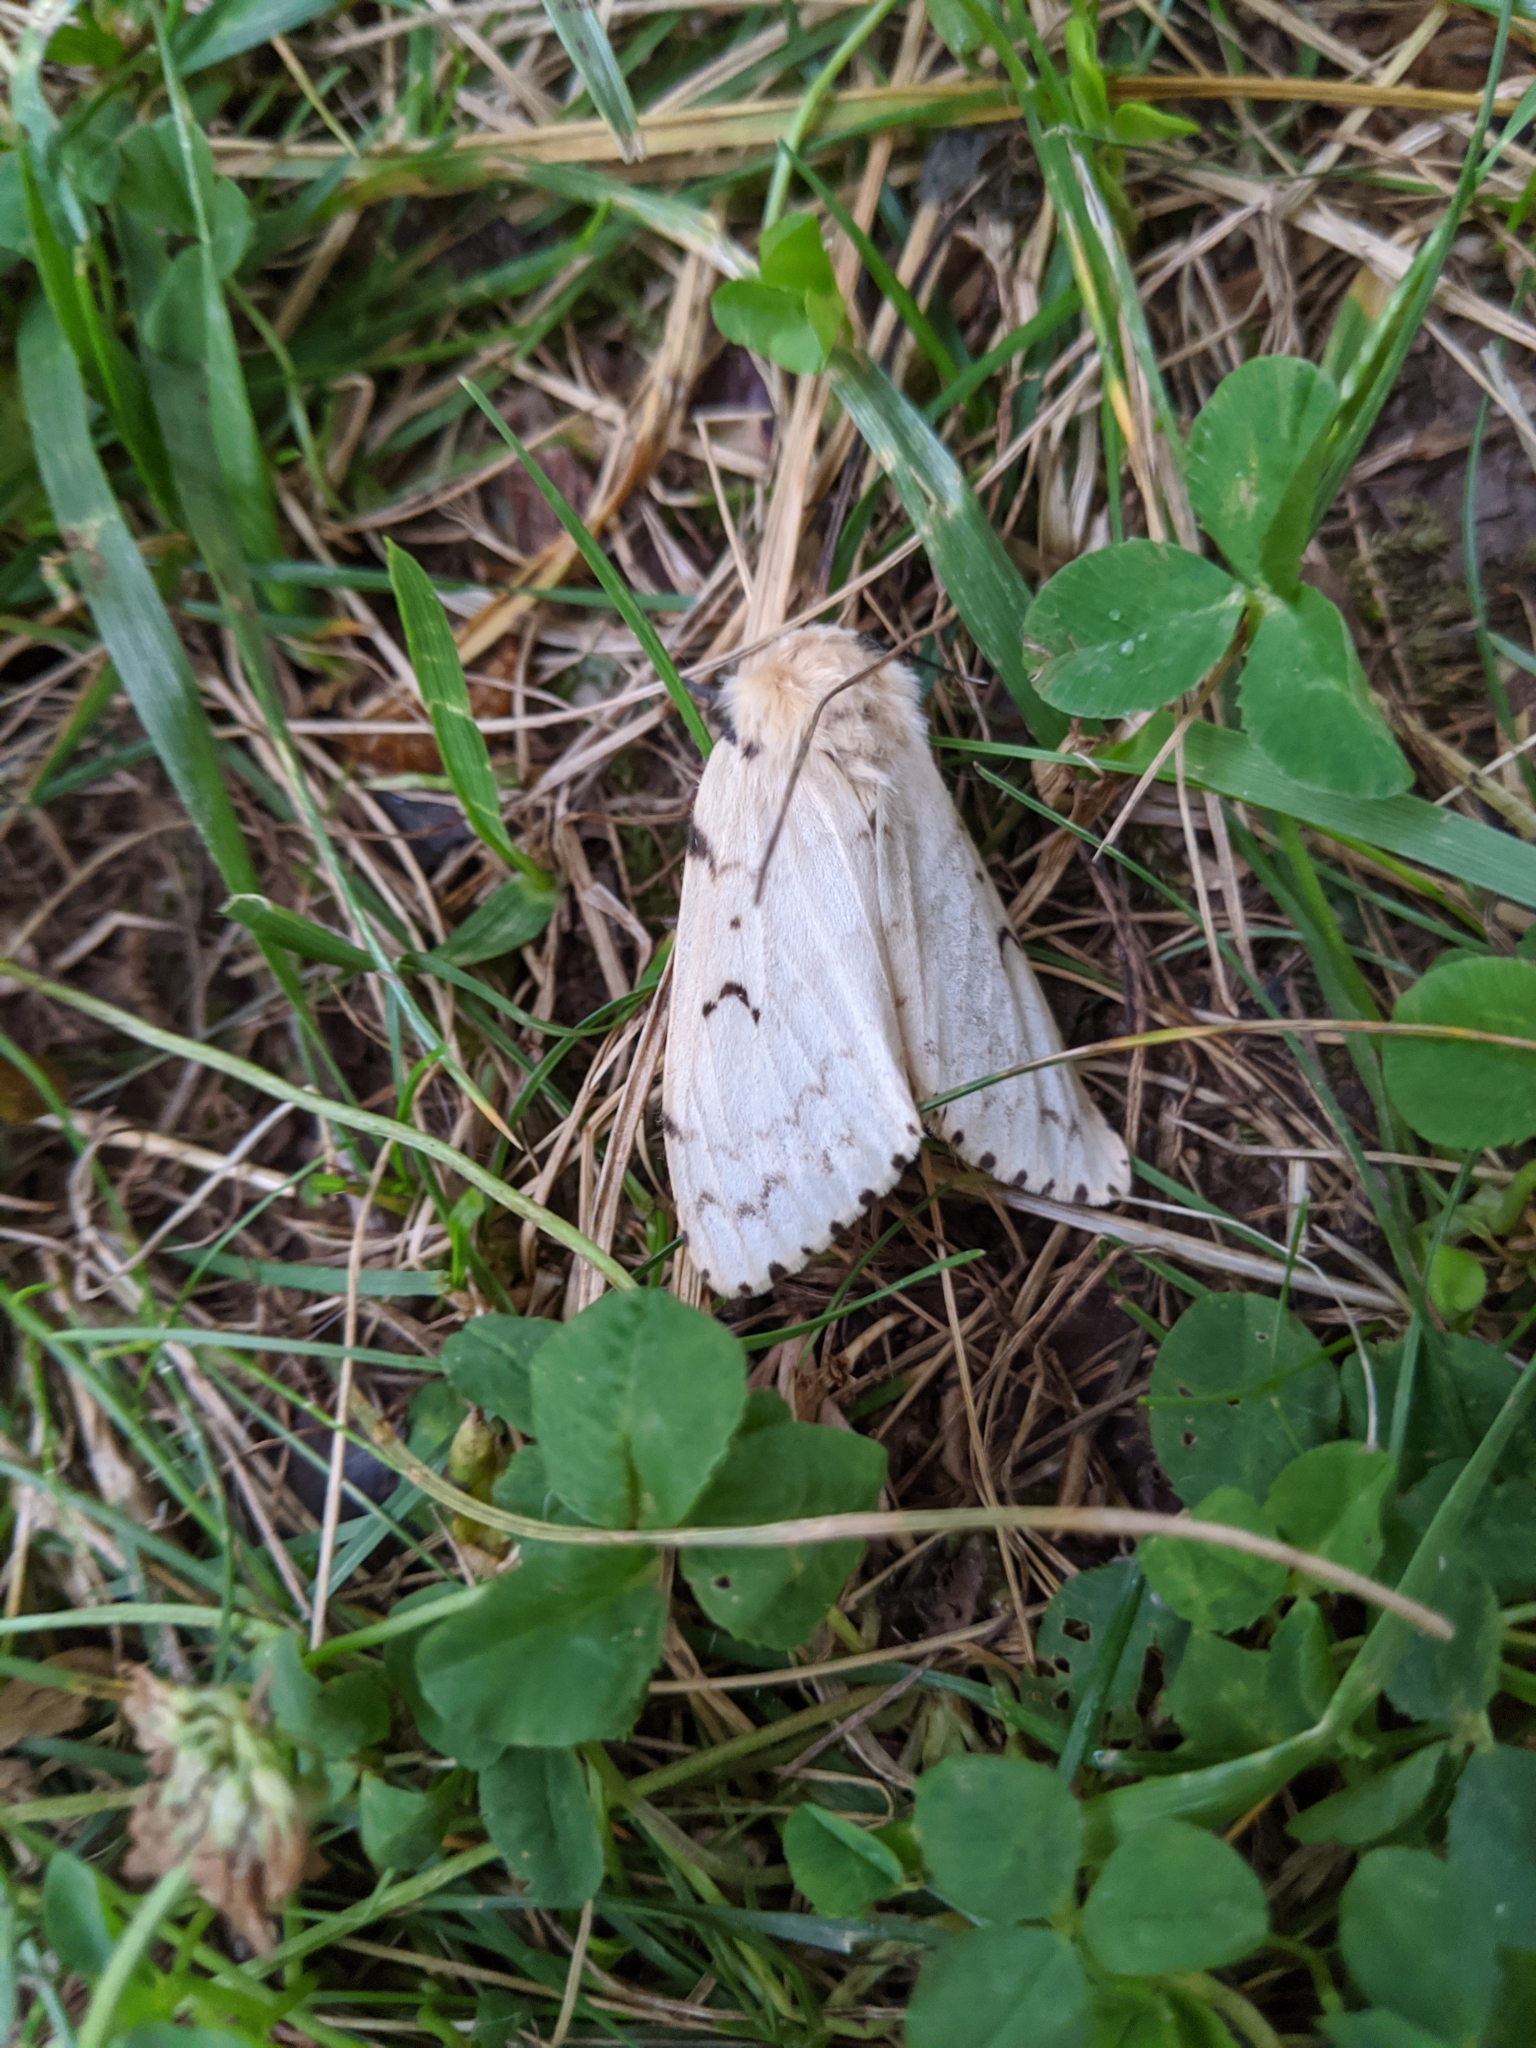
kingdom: Animalia
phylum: Arthropoda
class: Insecta
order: Lepidoptera
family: Erebidae
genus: Lymantria
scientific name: Lymantria dispar
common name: Gypsy moth
